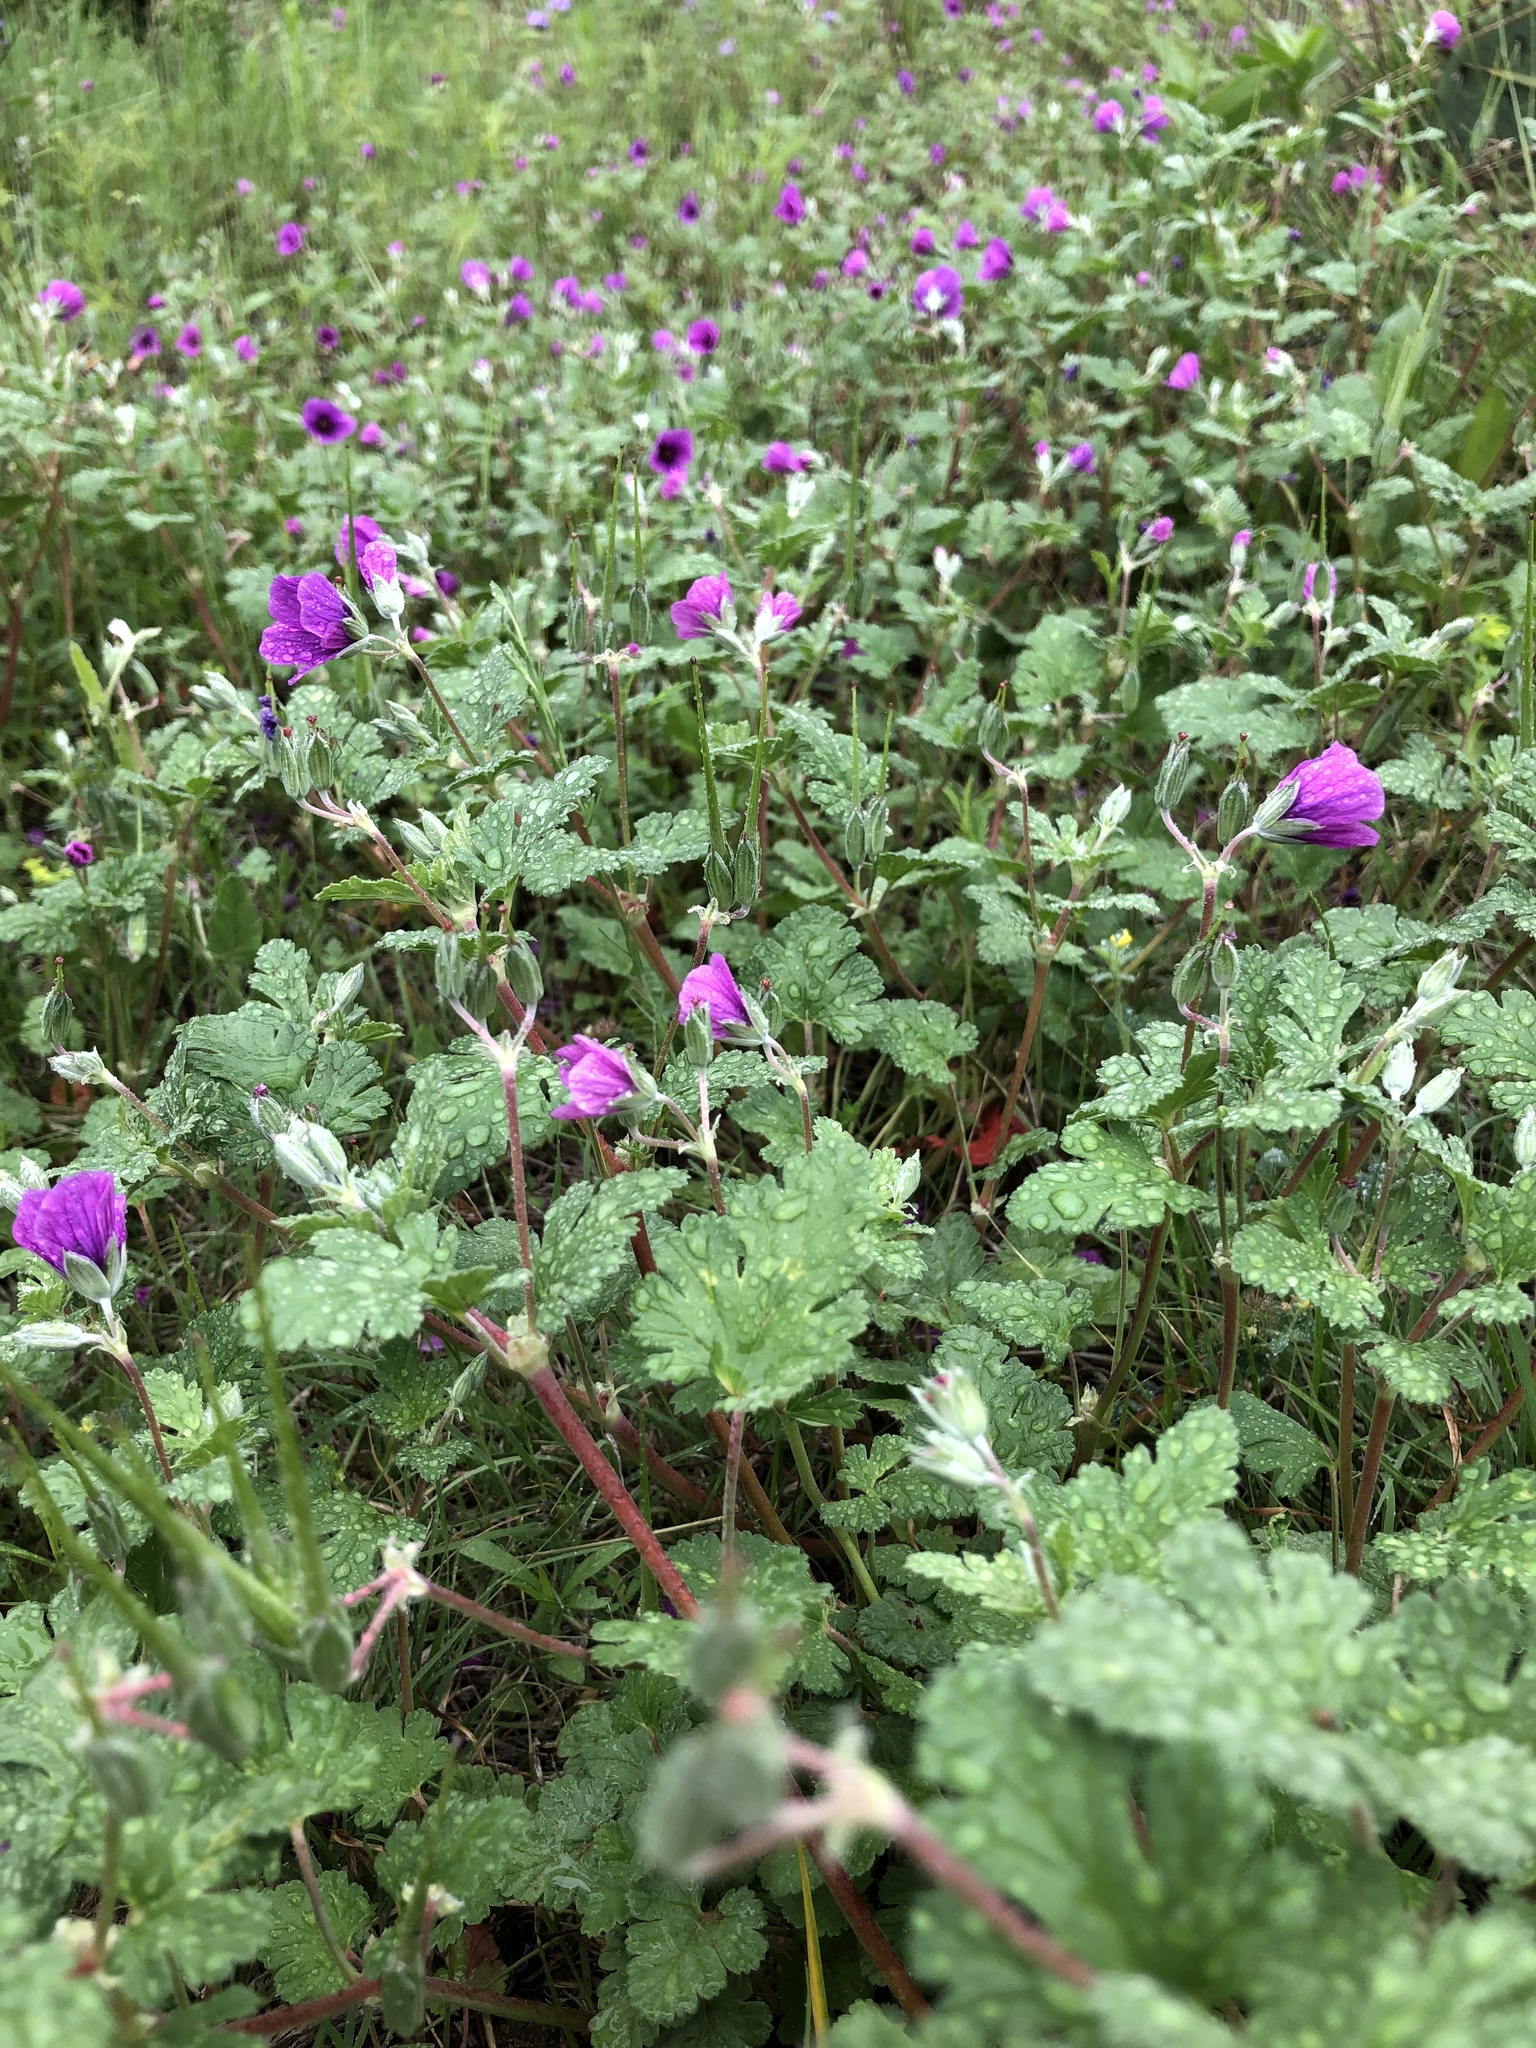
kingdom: Plantae
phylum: Tracheophyta
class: Magnoliopsida
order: Geraniales
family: Geraniaceae
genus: Erodium
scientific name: Erodium texanum
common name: Texas stork's-bill
